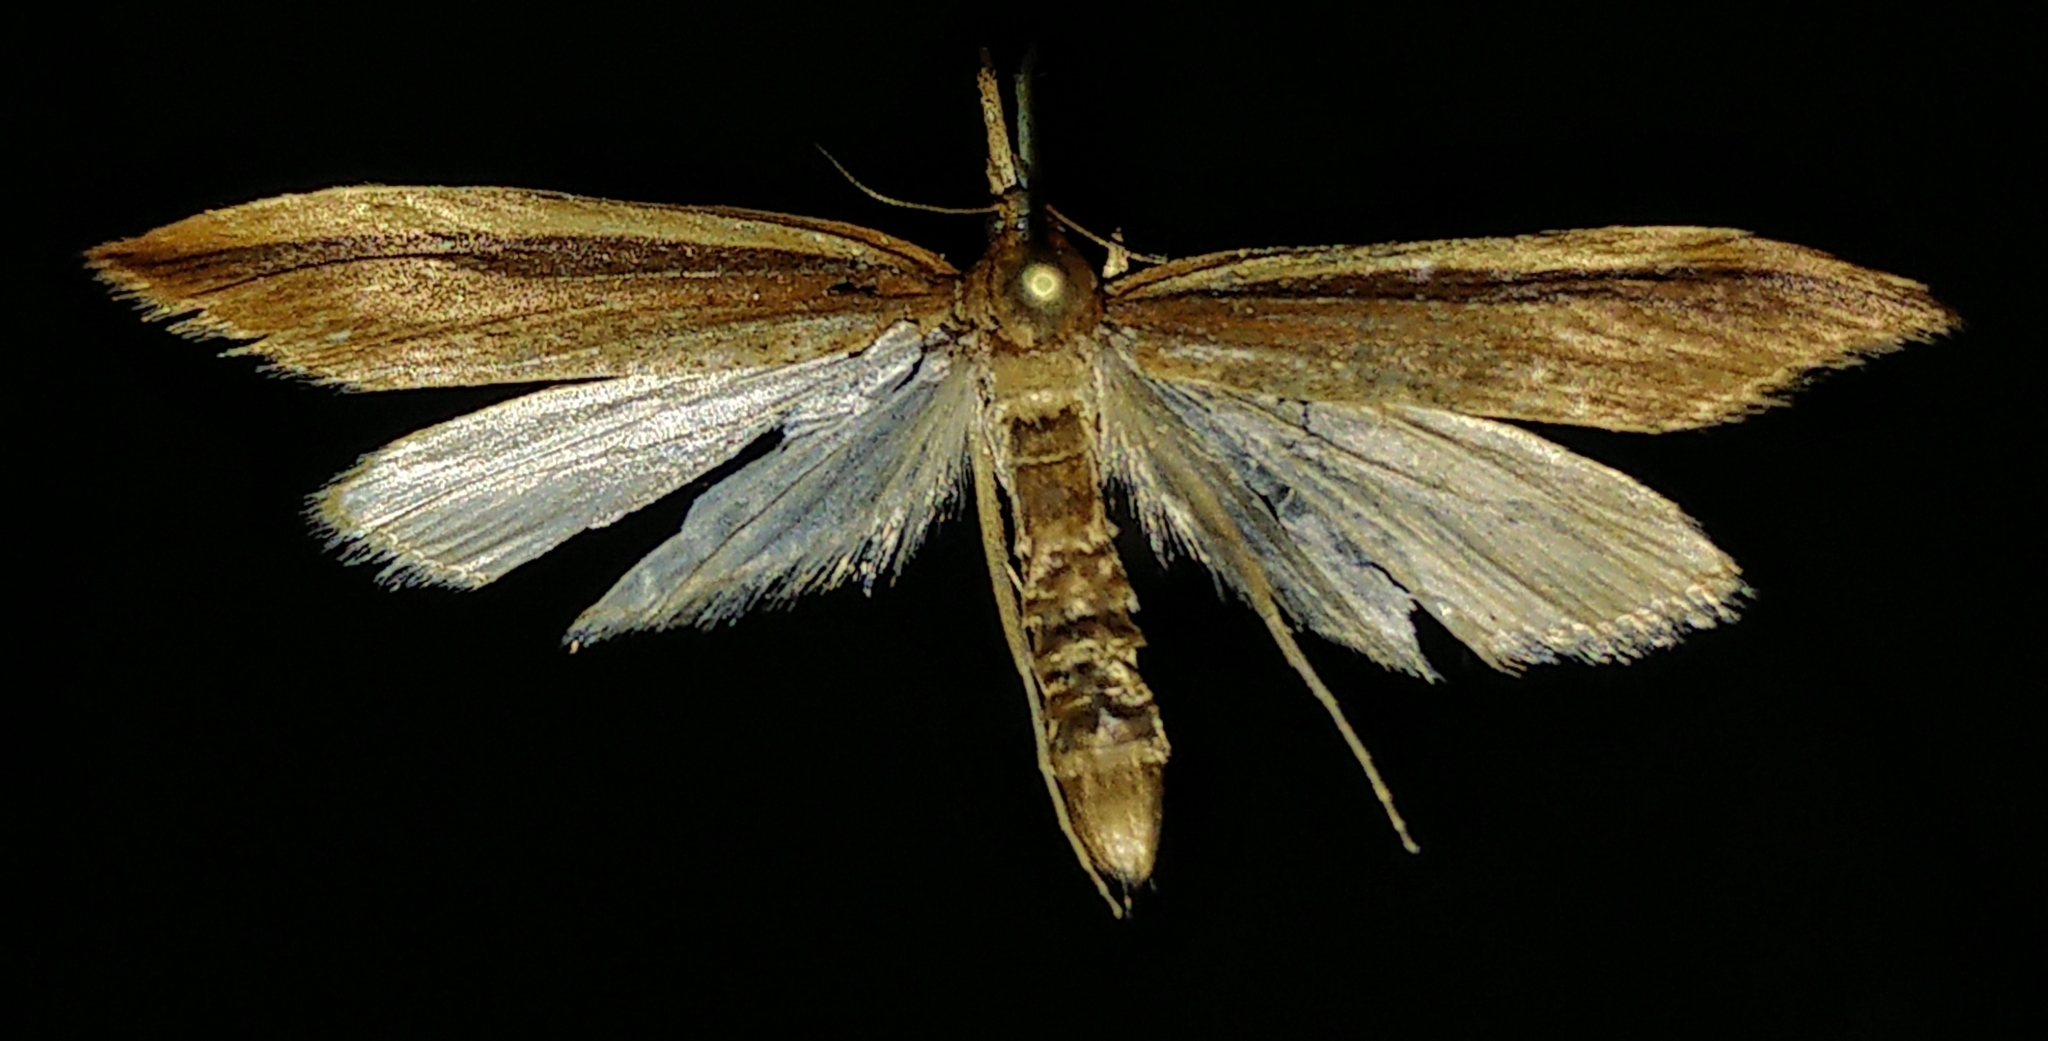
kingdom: Animalia
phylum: Arthropoda
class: Insecta
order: Lepidoptera
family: Crambidae
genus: Donacaula
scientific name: Donacaula melinellus
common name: Delightful donacaula moth
